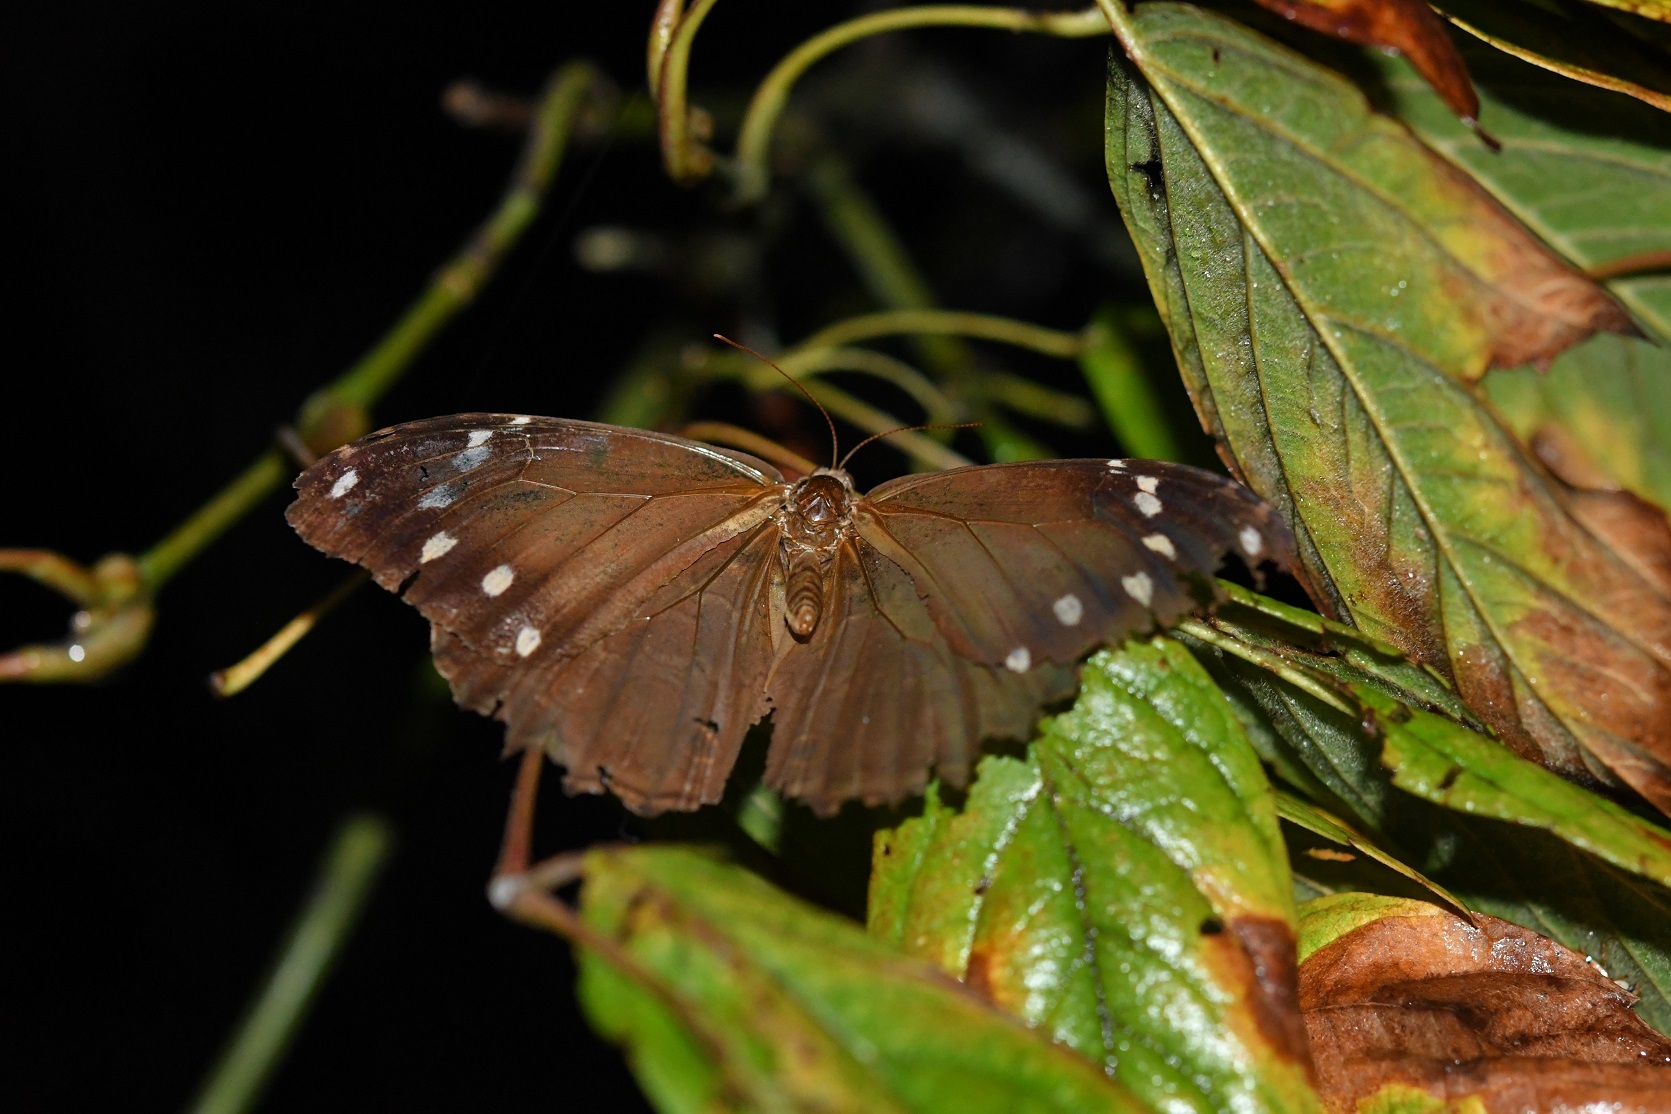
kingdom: Animalia
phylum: Arthropoda
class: Insecta
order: Lepidoptera
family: Nymphalidae
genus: Manataria
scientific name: Manataria maculata
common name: White-spotted satyr
